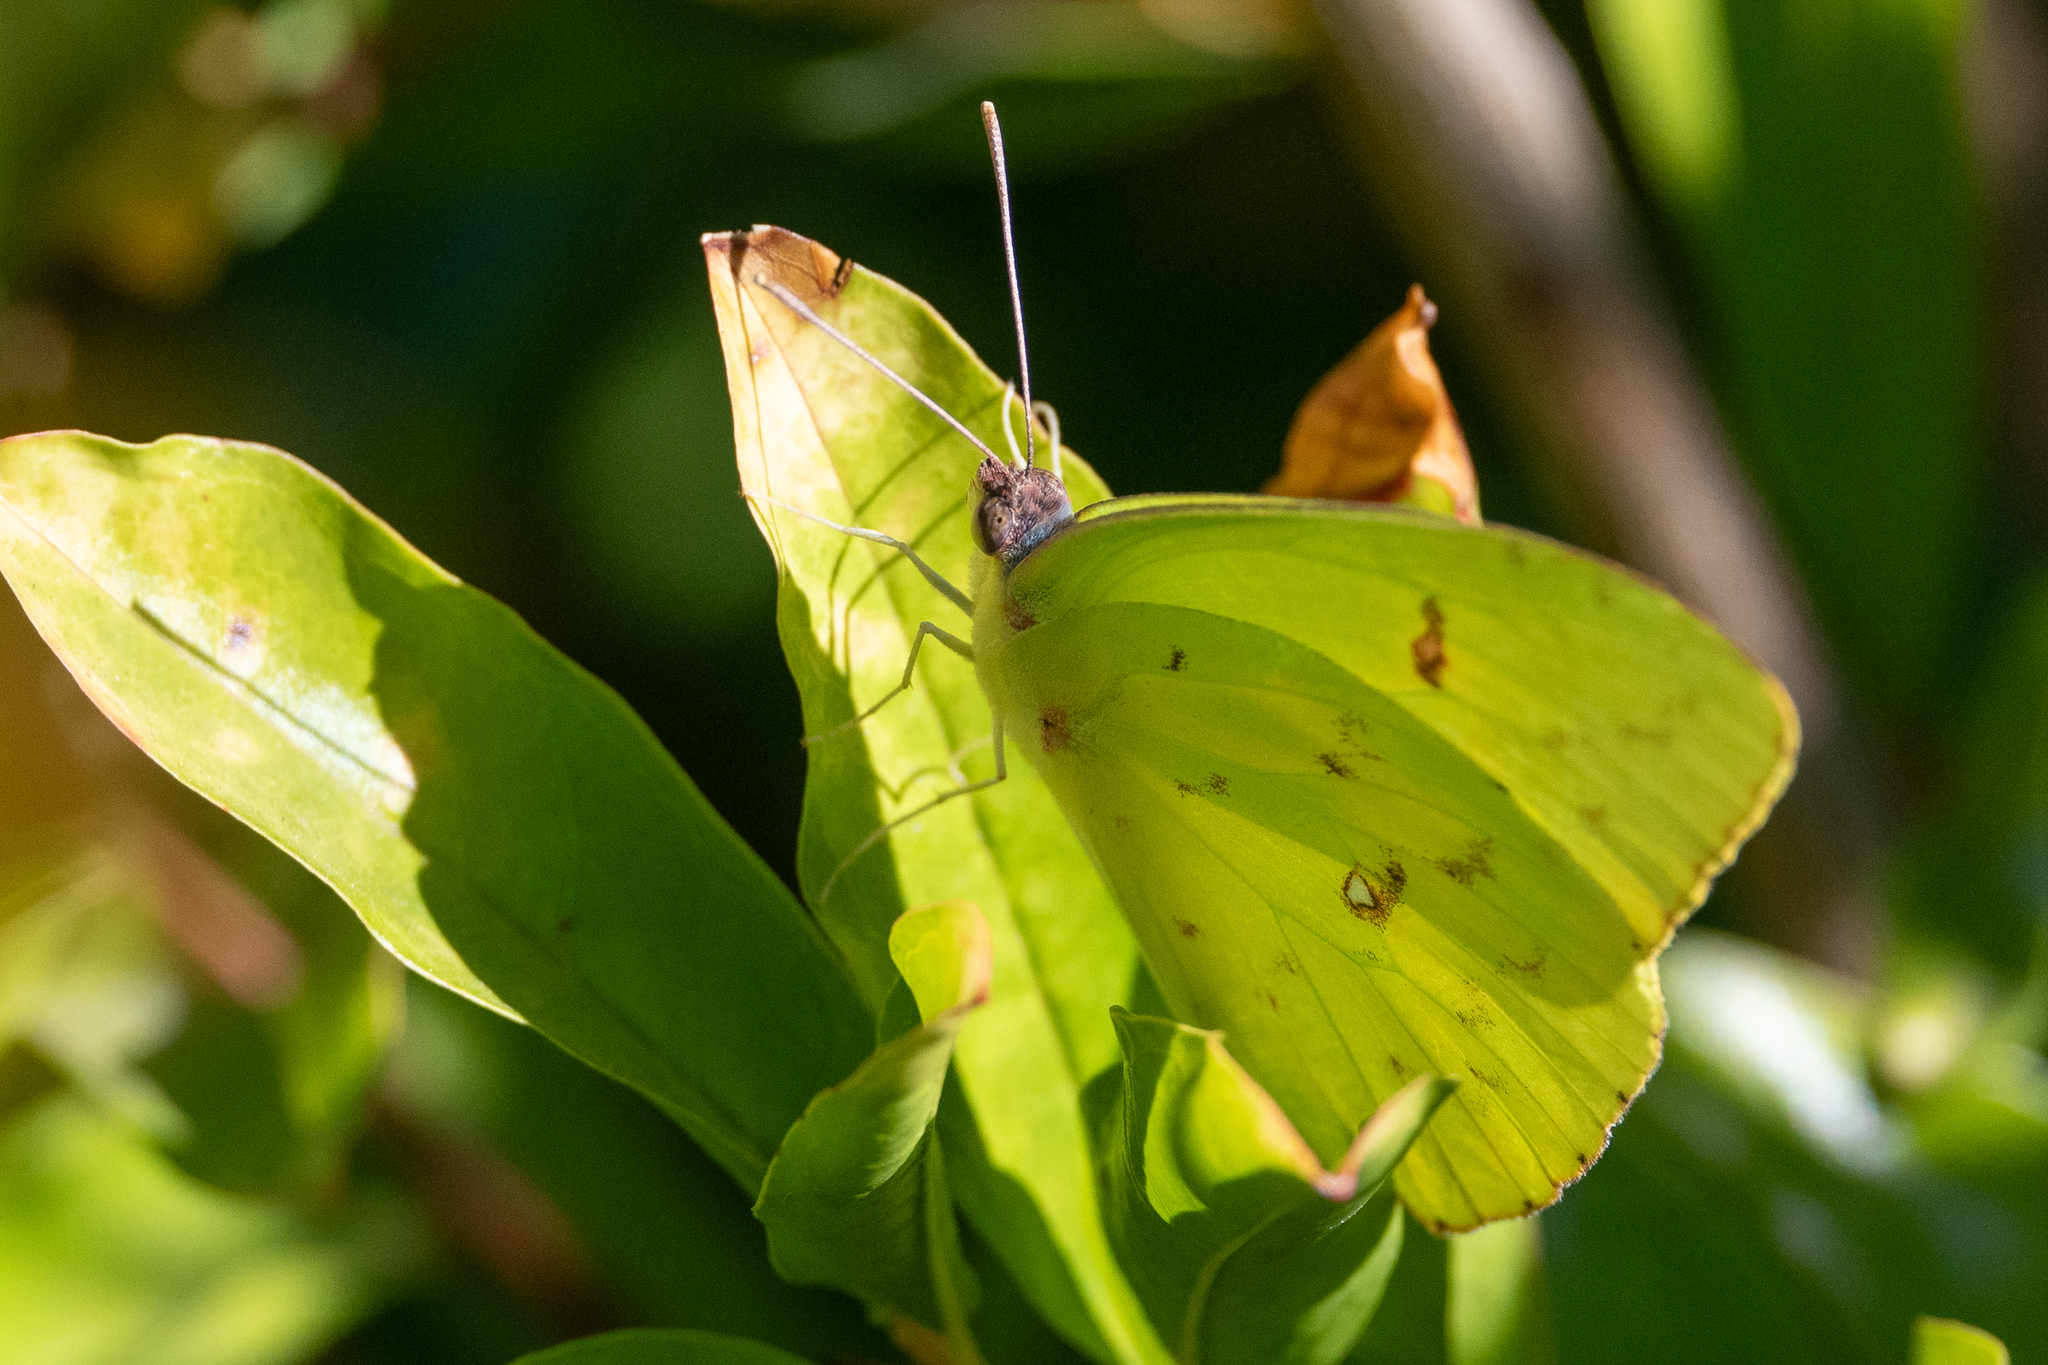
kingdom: Animalia
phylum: Arthropoda
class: Insecta
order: Lepidoptera
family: Pieridae
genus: Phoebis
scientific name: Phoebis sennae
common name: Cloudless sulphur
